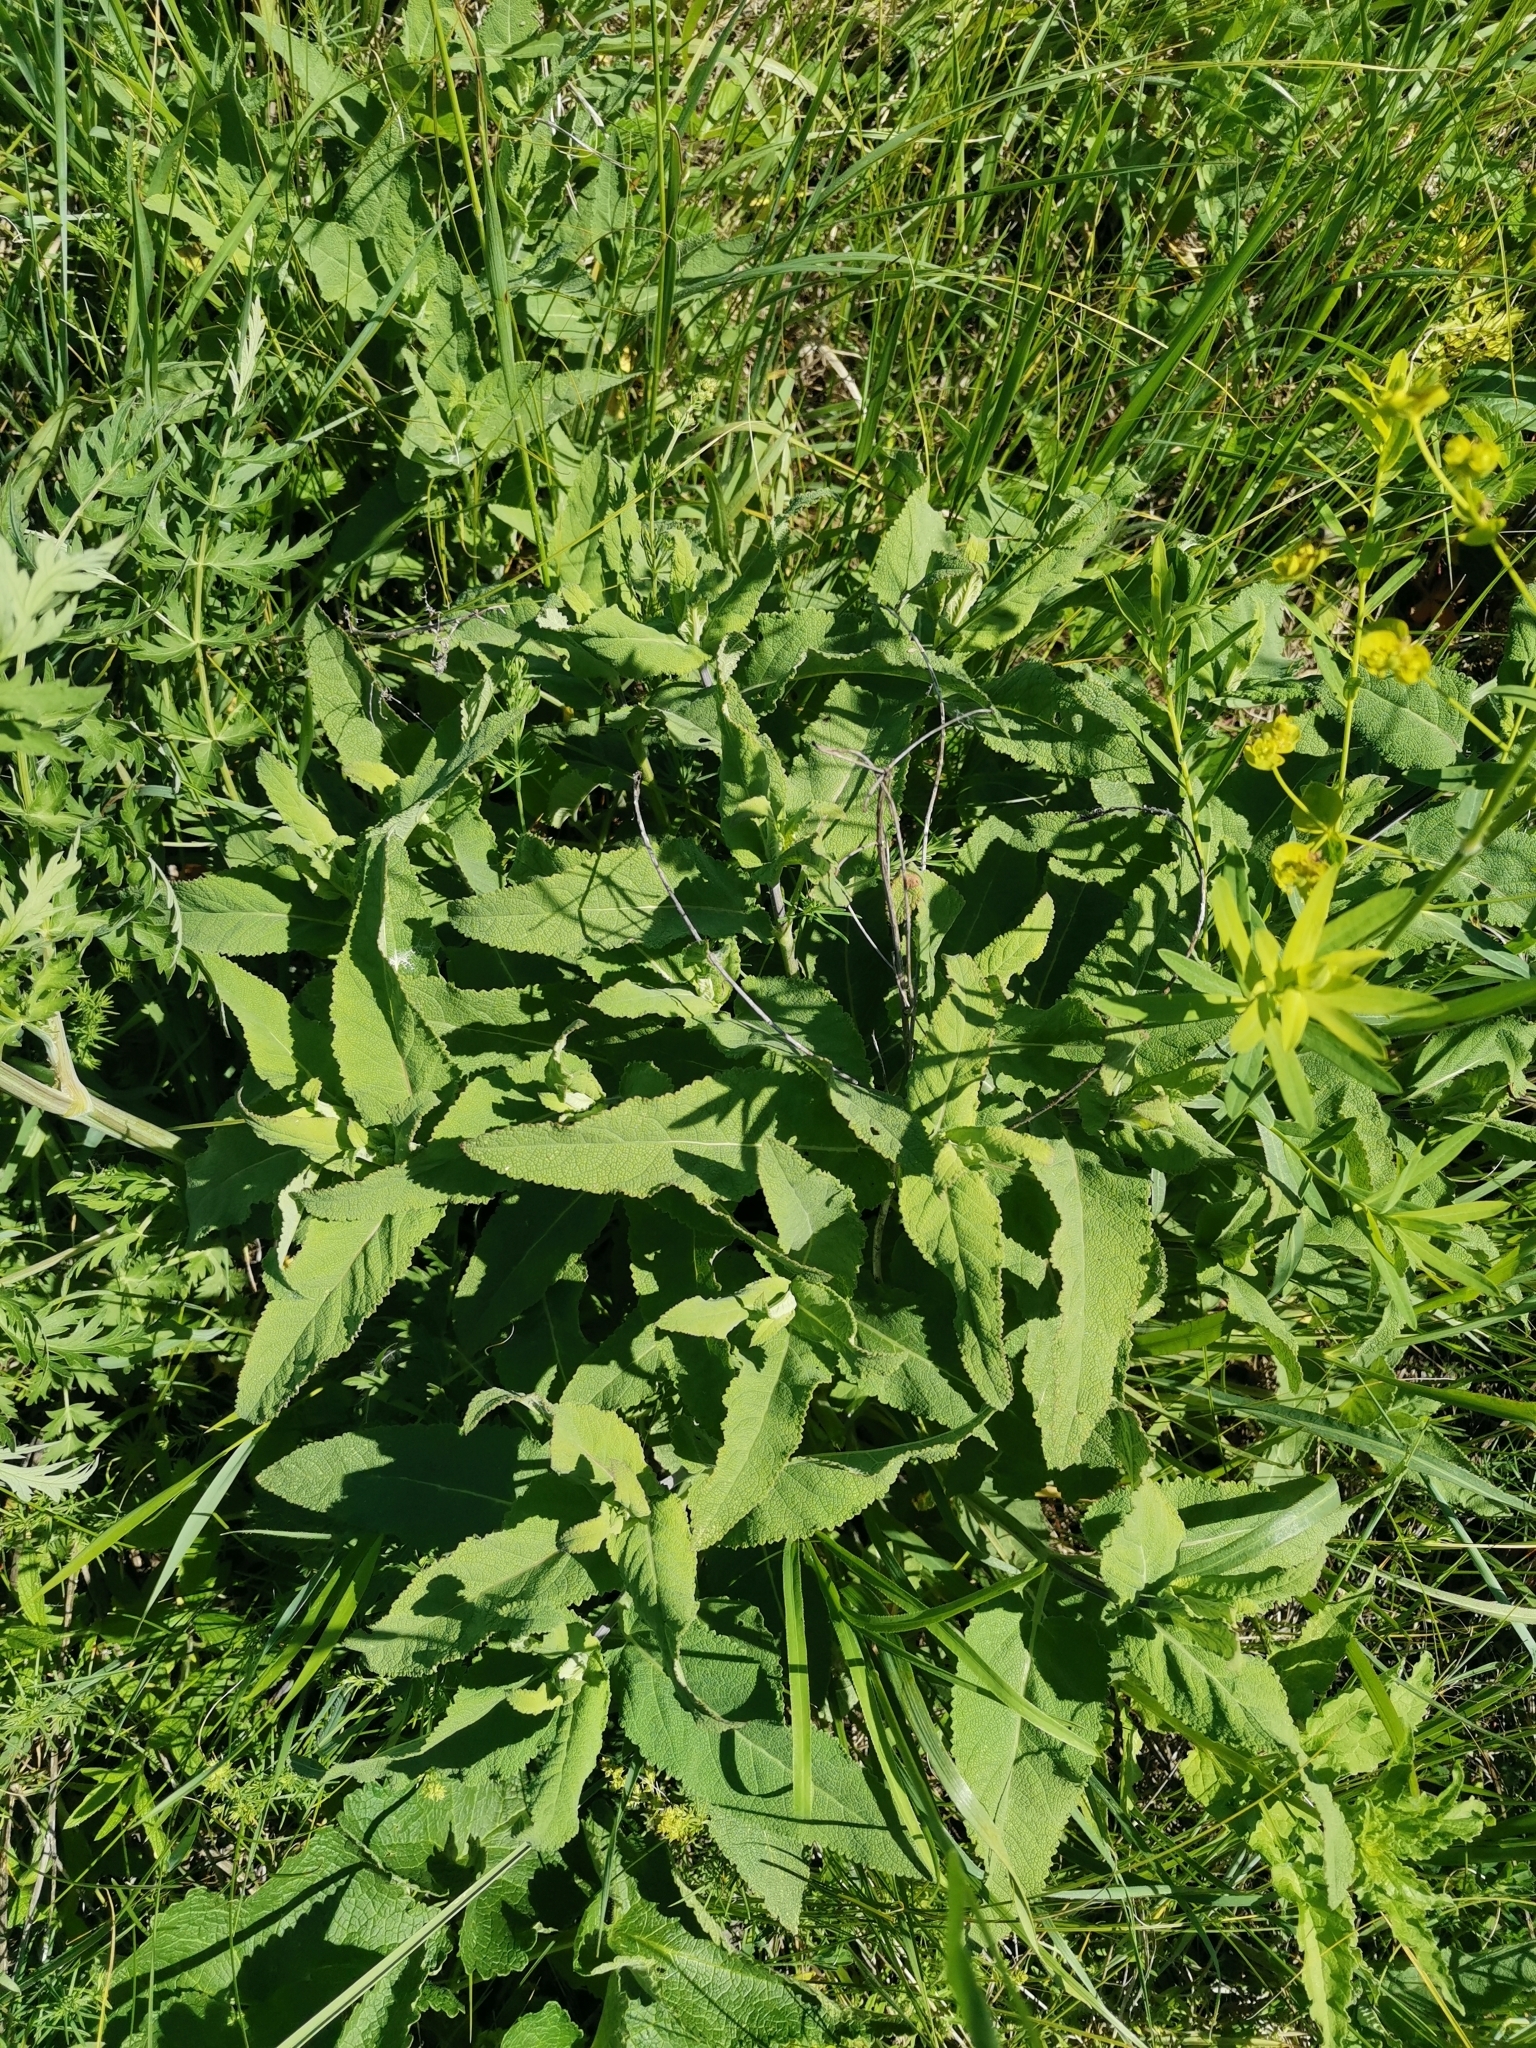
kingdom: Plantae
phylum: Tracheophyta
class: Magnoliopsida
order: Lamiales
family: Lamiaceae
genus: Salvia
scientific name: Salvia nemorosa
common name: Balkan clary
